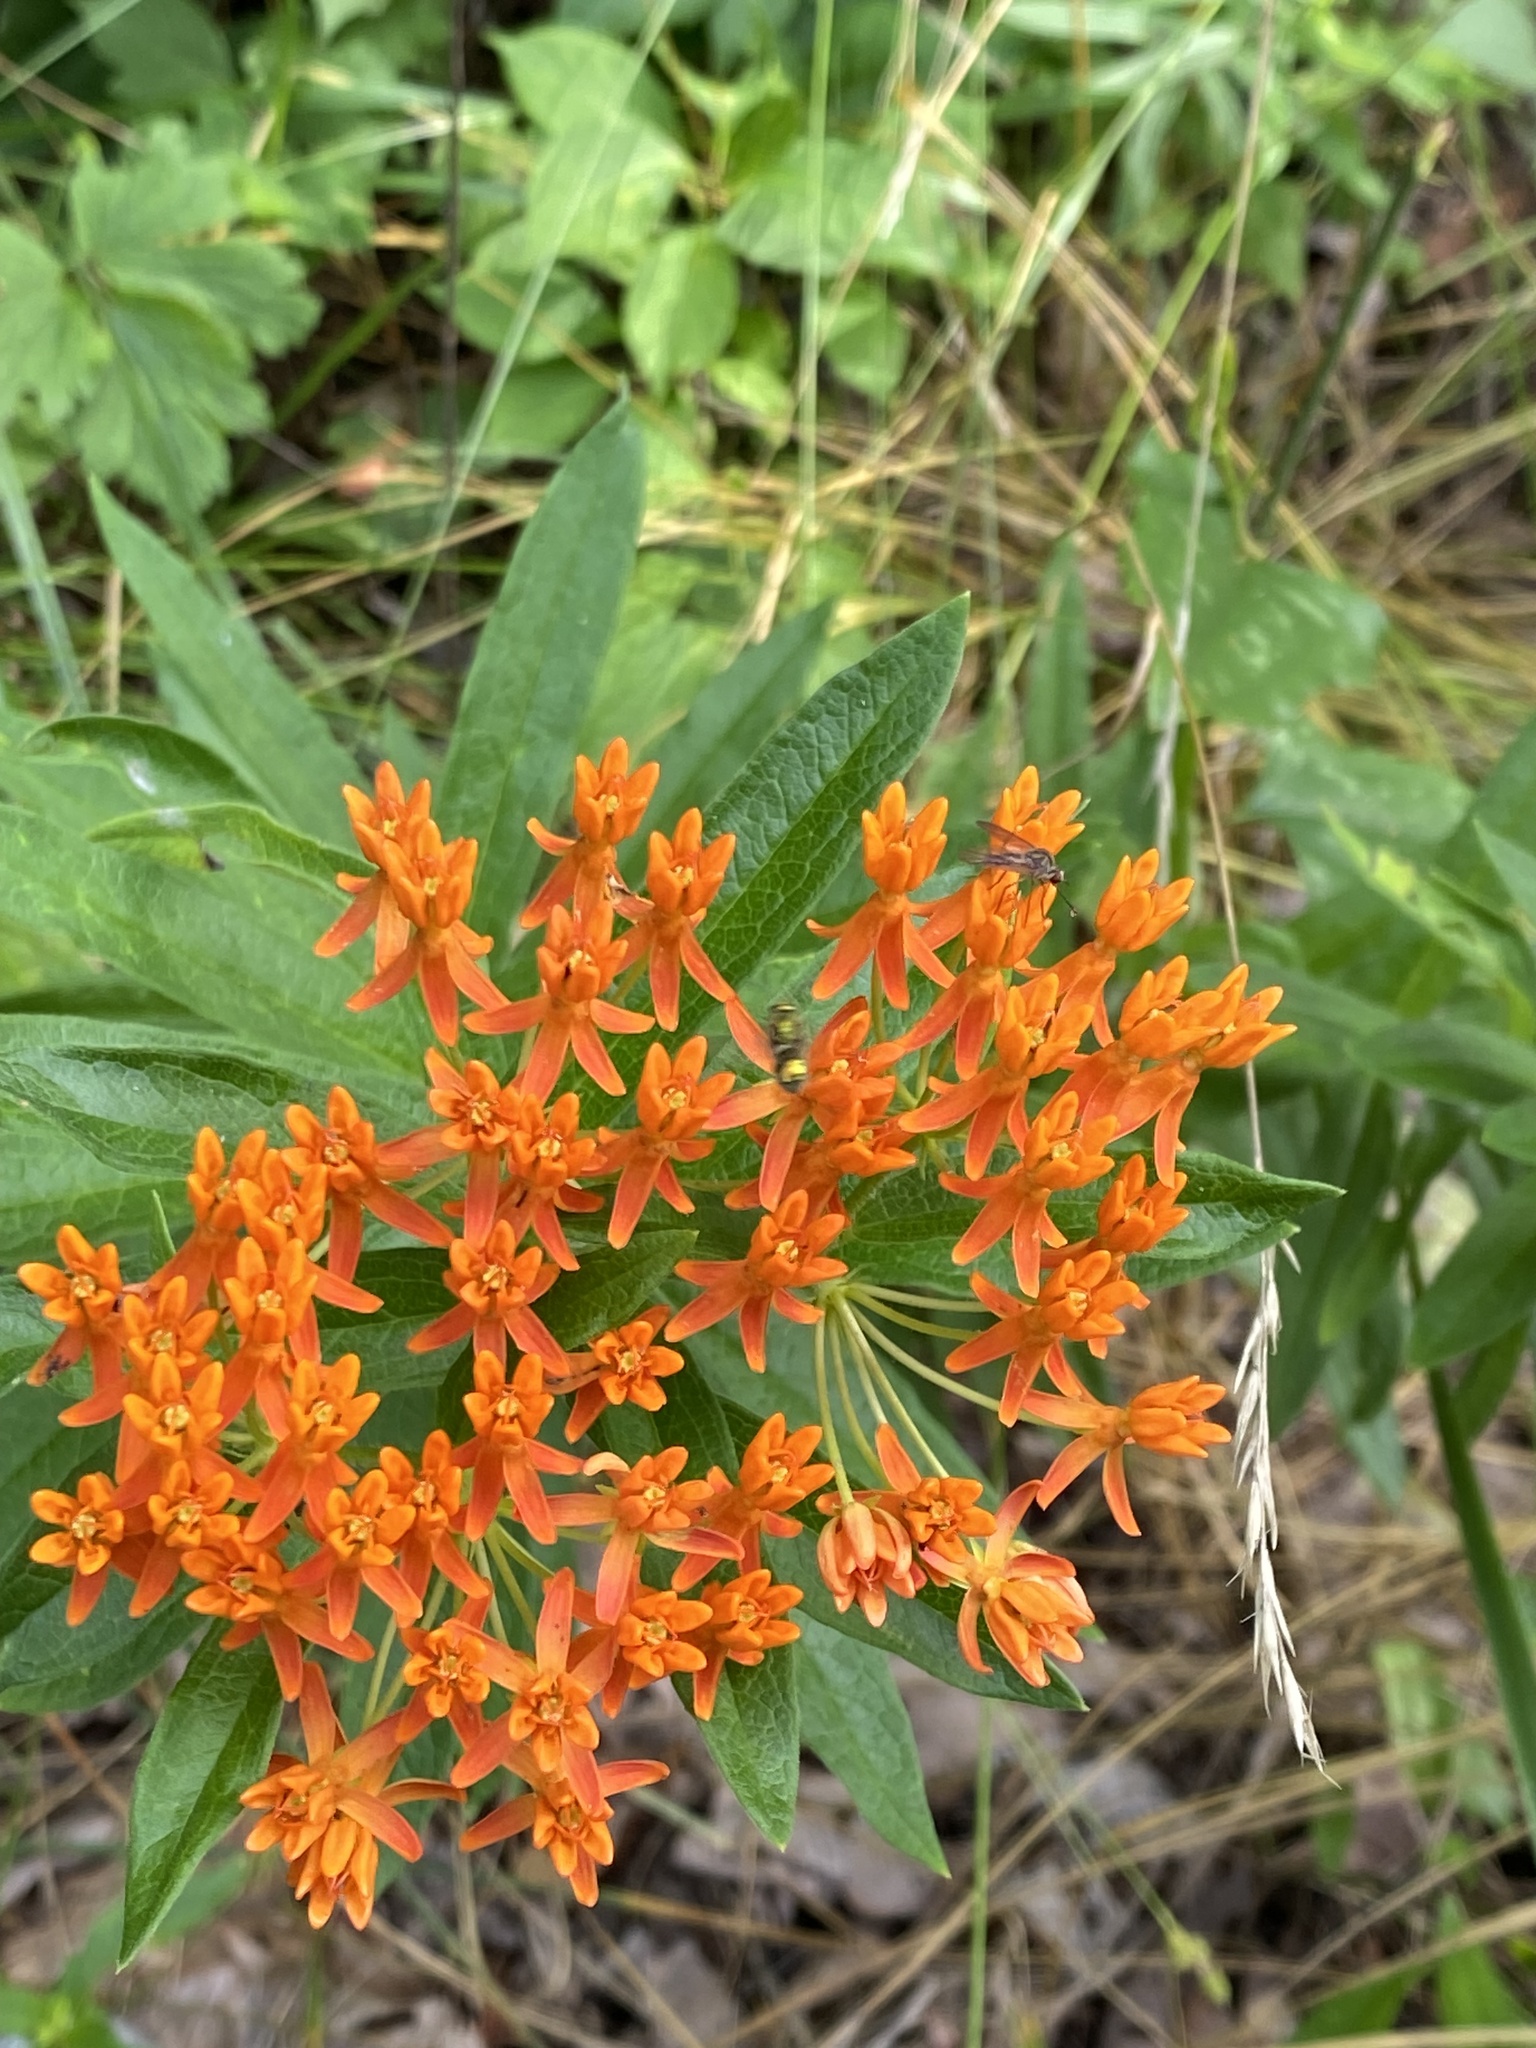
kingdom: Plantae
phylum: Tracheophyta
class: Magnoliopsida
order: Gentianales
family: Apocynaceae
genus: Asclepias
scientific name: Asclepias tuberosa
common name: Butterfly milkweed
